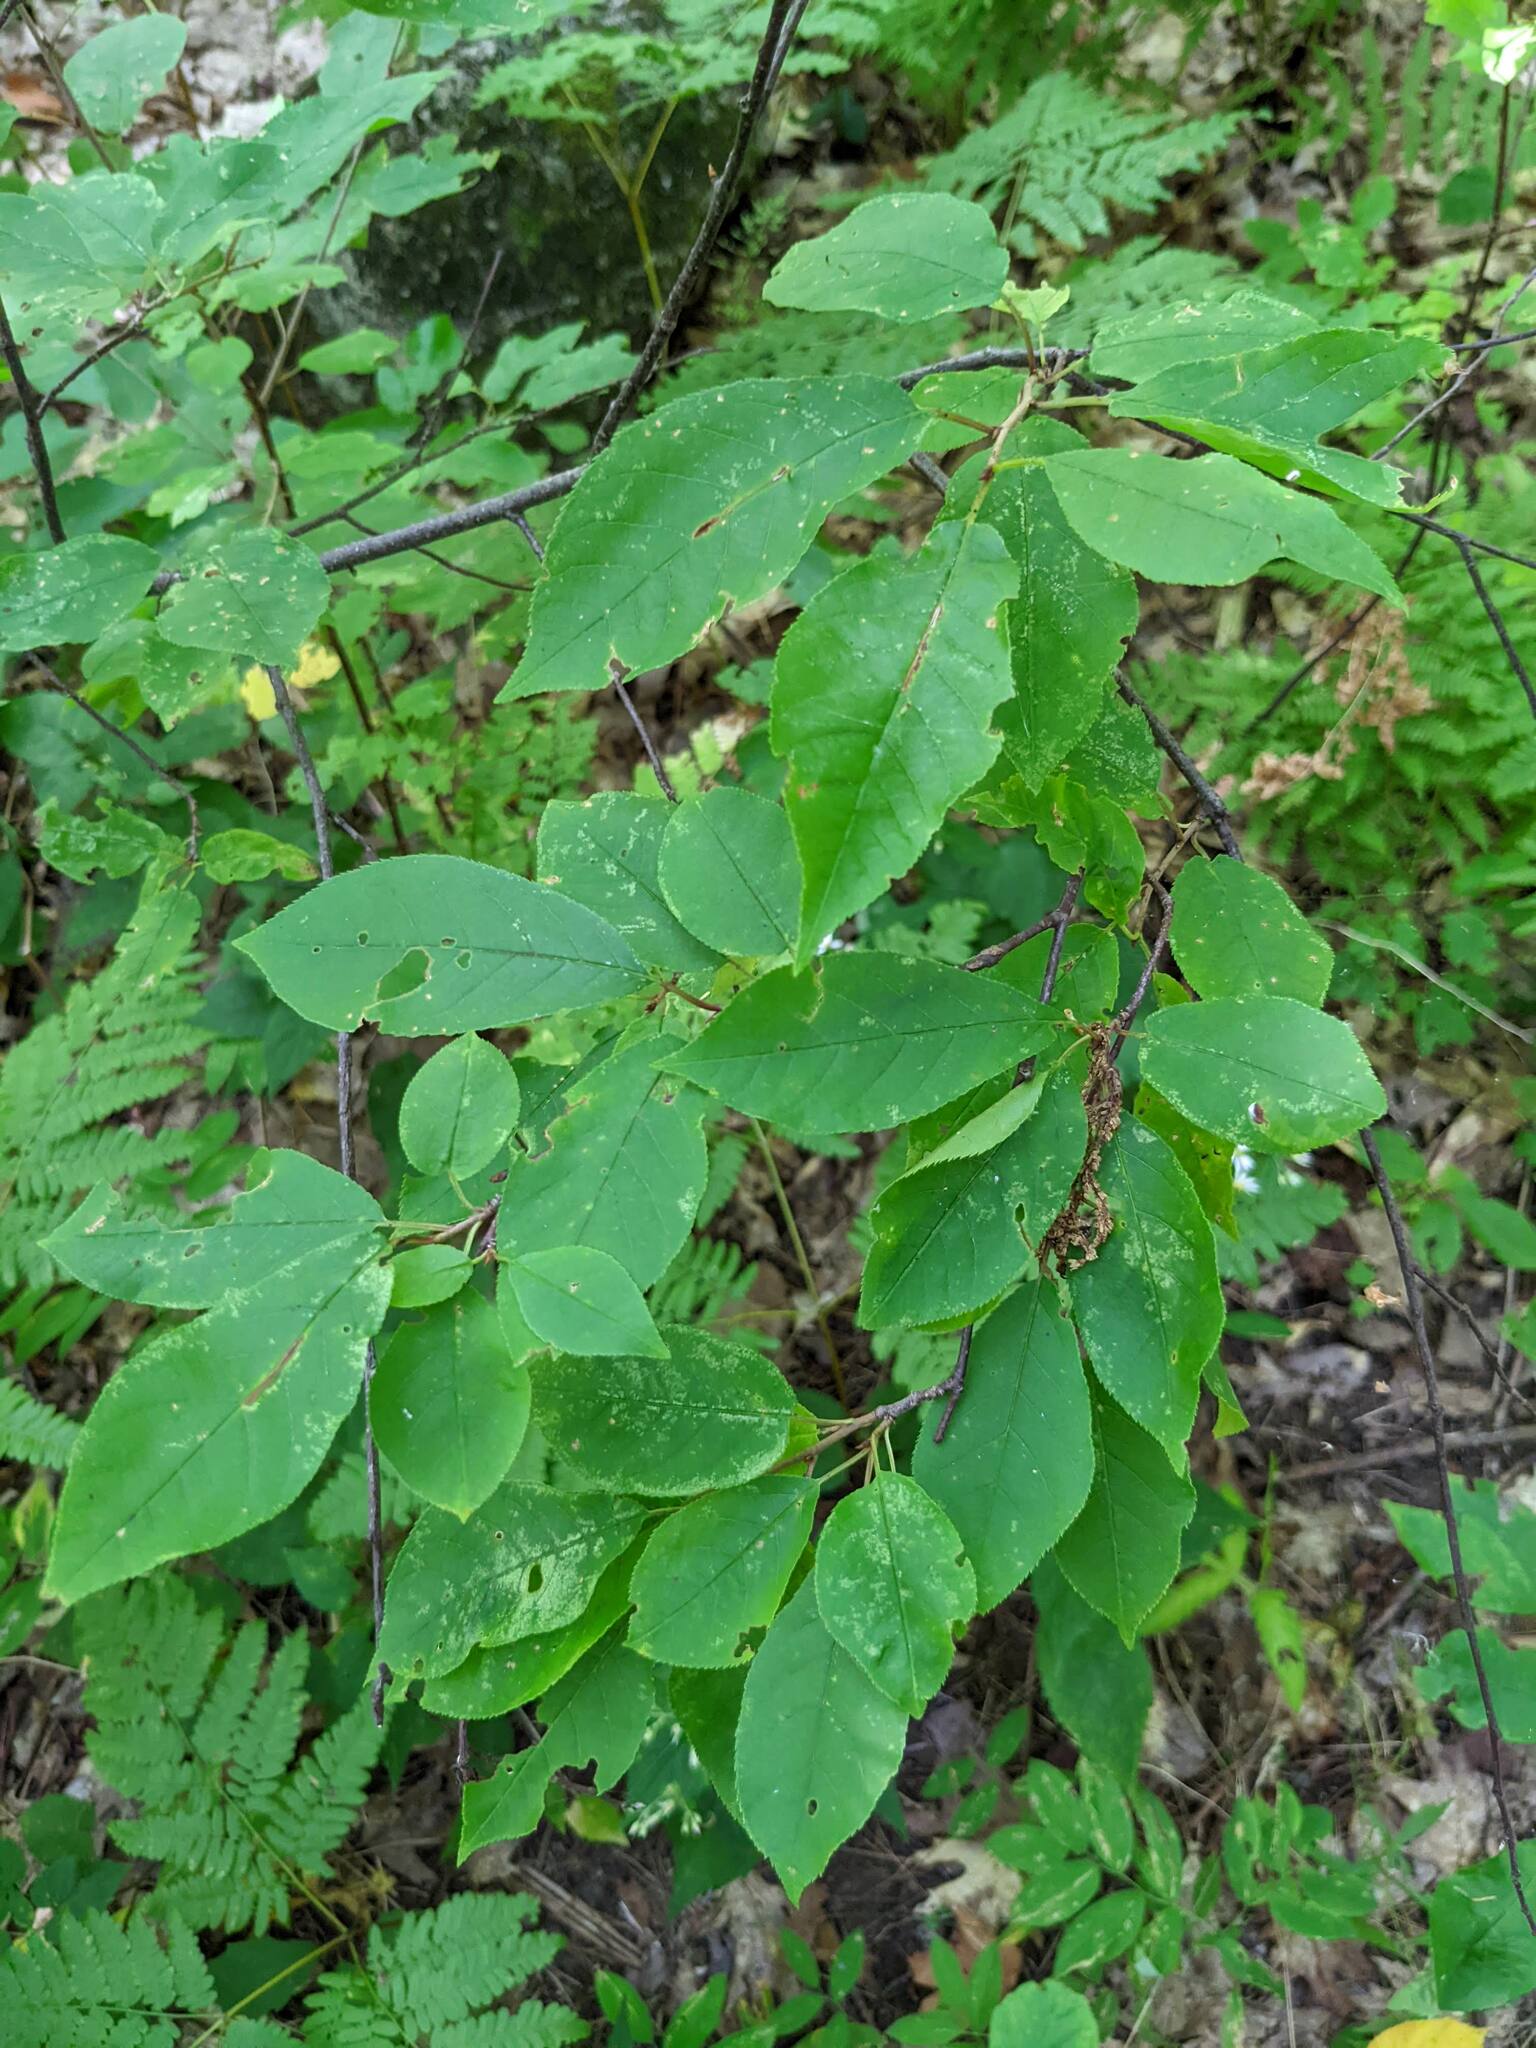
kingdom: Plantae
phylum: Tracheophyta
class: Magnoliopsida
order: Rosales
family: Rosaceae
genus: Prunus
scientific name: Prunus virginiana
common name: Chokecherry
